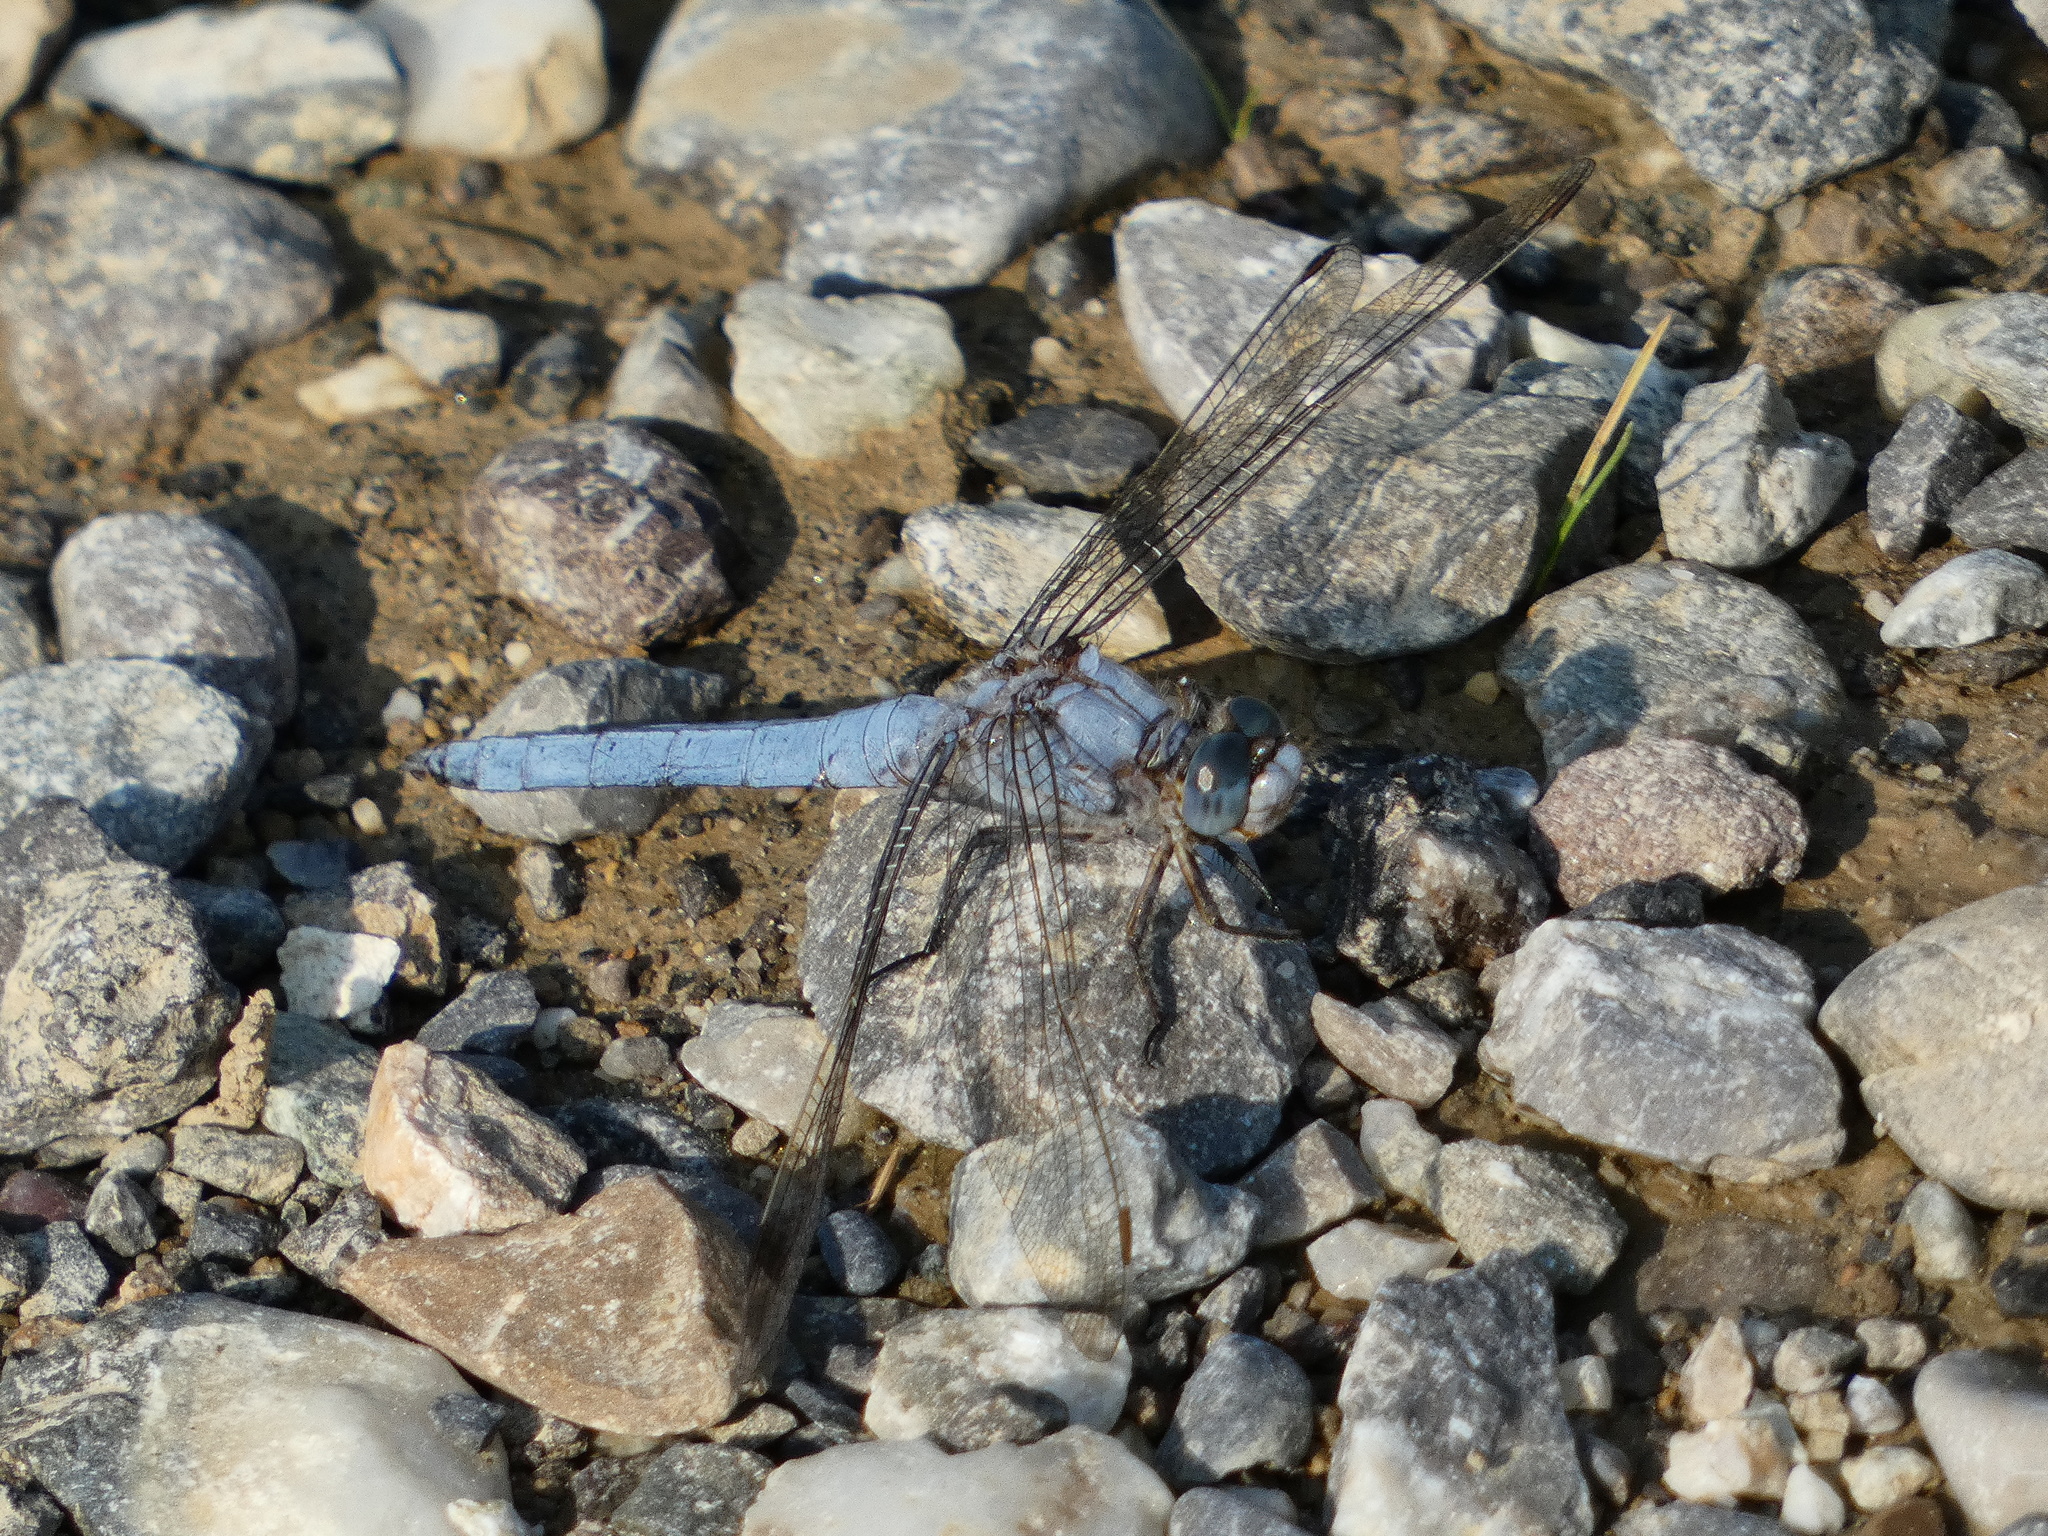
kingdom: Animalia
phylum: Arthropoda
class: Insecta
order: Odonata
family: Libellulidae
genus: Orthetrum
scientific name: Orthetrum brunneum
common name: Southern skimmer
